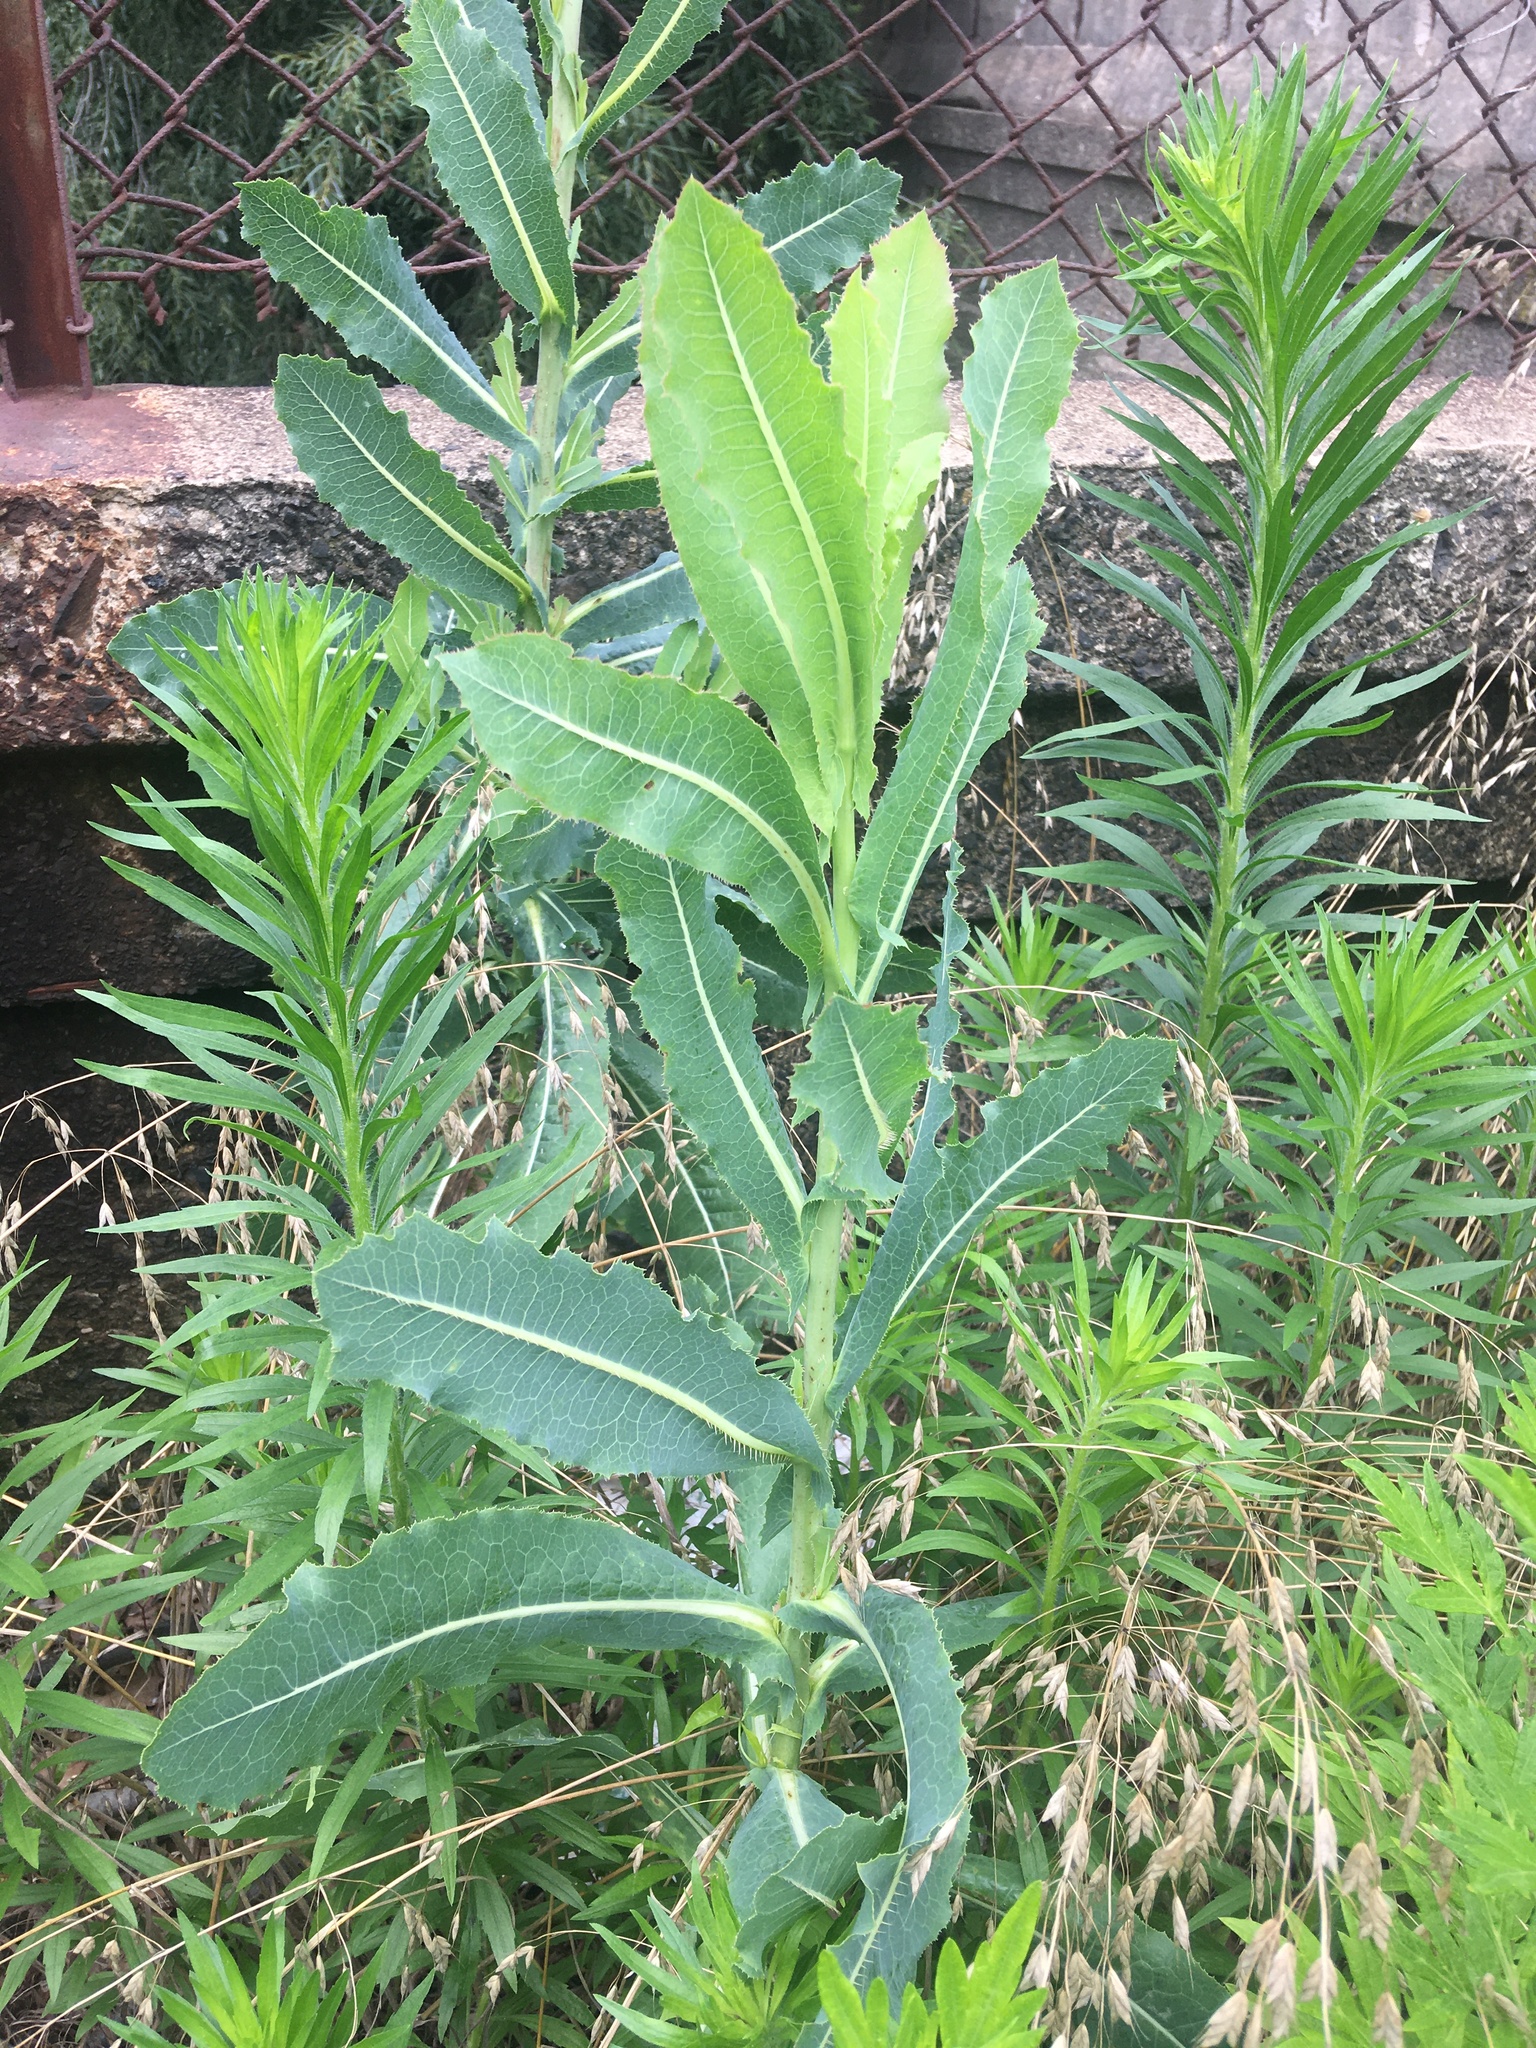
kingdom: Plantae
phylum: Tracheophyta
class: Magnoliopsida
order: Asterales
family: Asteraceae
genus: Lactuca
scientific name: Lactuca serriola
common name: Prickly lettuce
